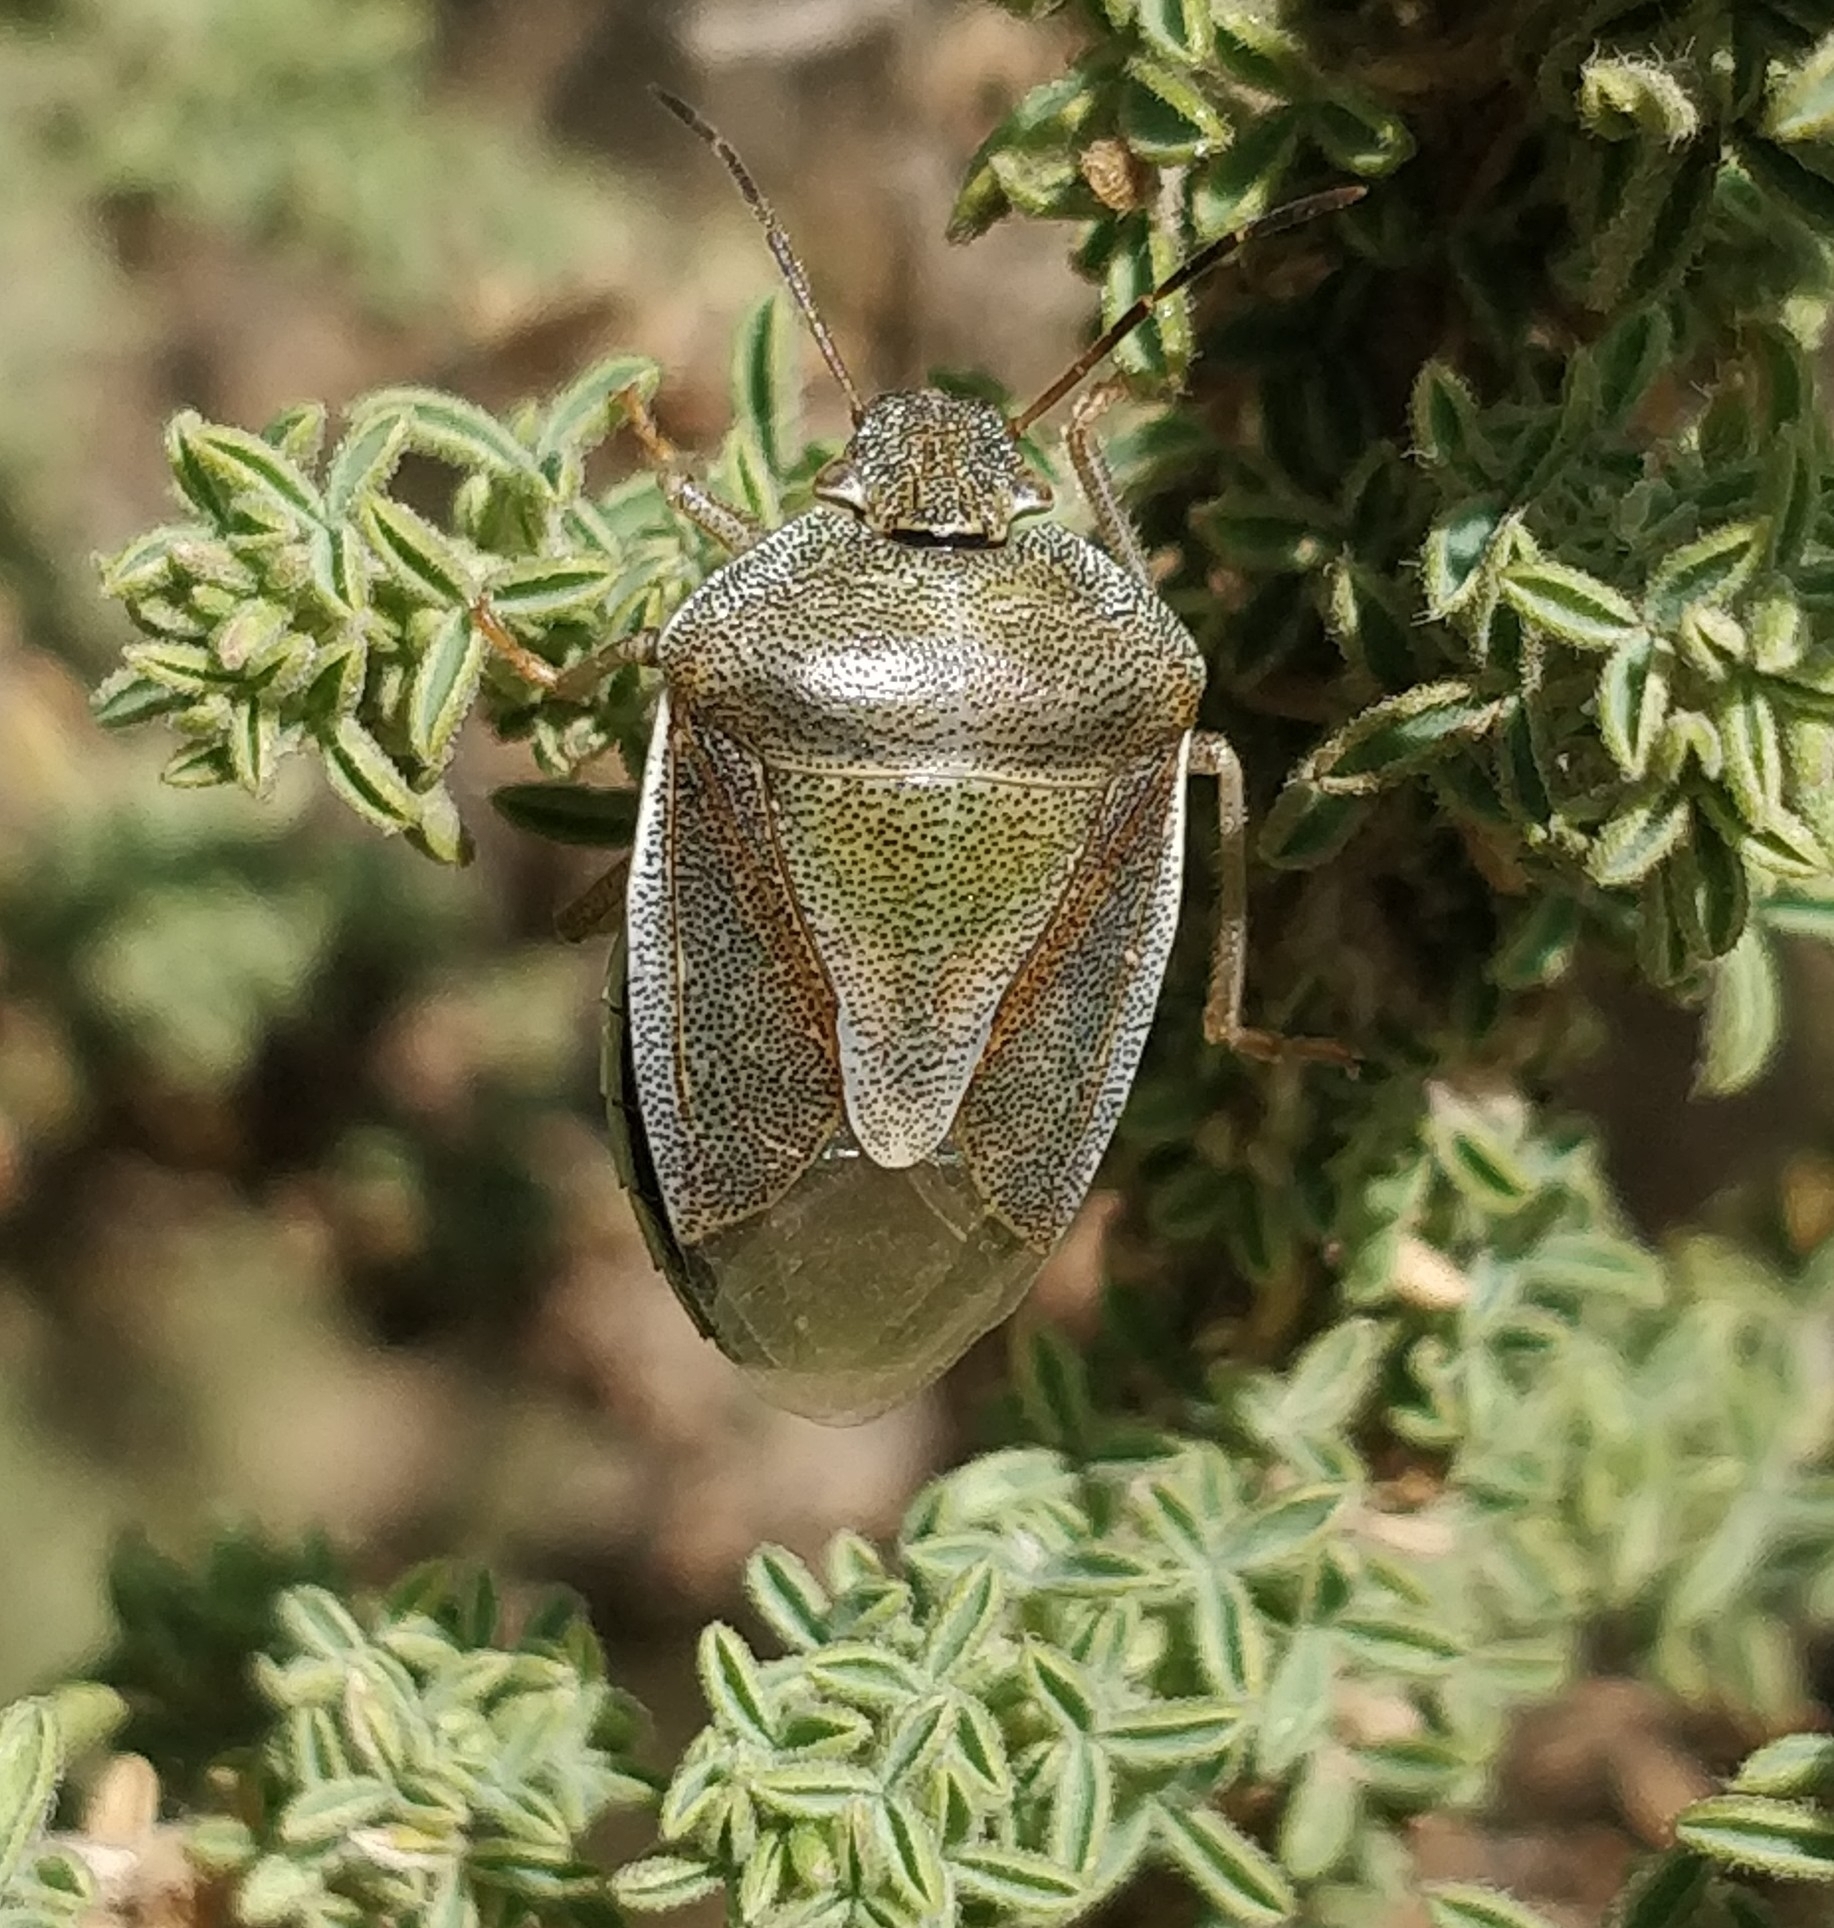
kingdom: Animalia
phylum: Arthropoda
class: Insecta
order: Hemiptera
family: Pentatomidae
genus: Piezodorus
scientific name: Piezodorus punctipes
